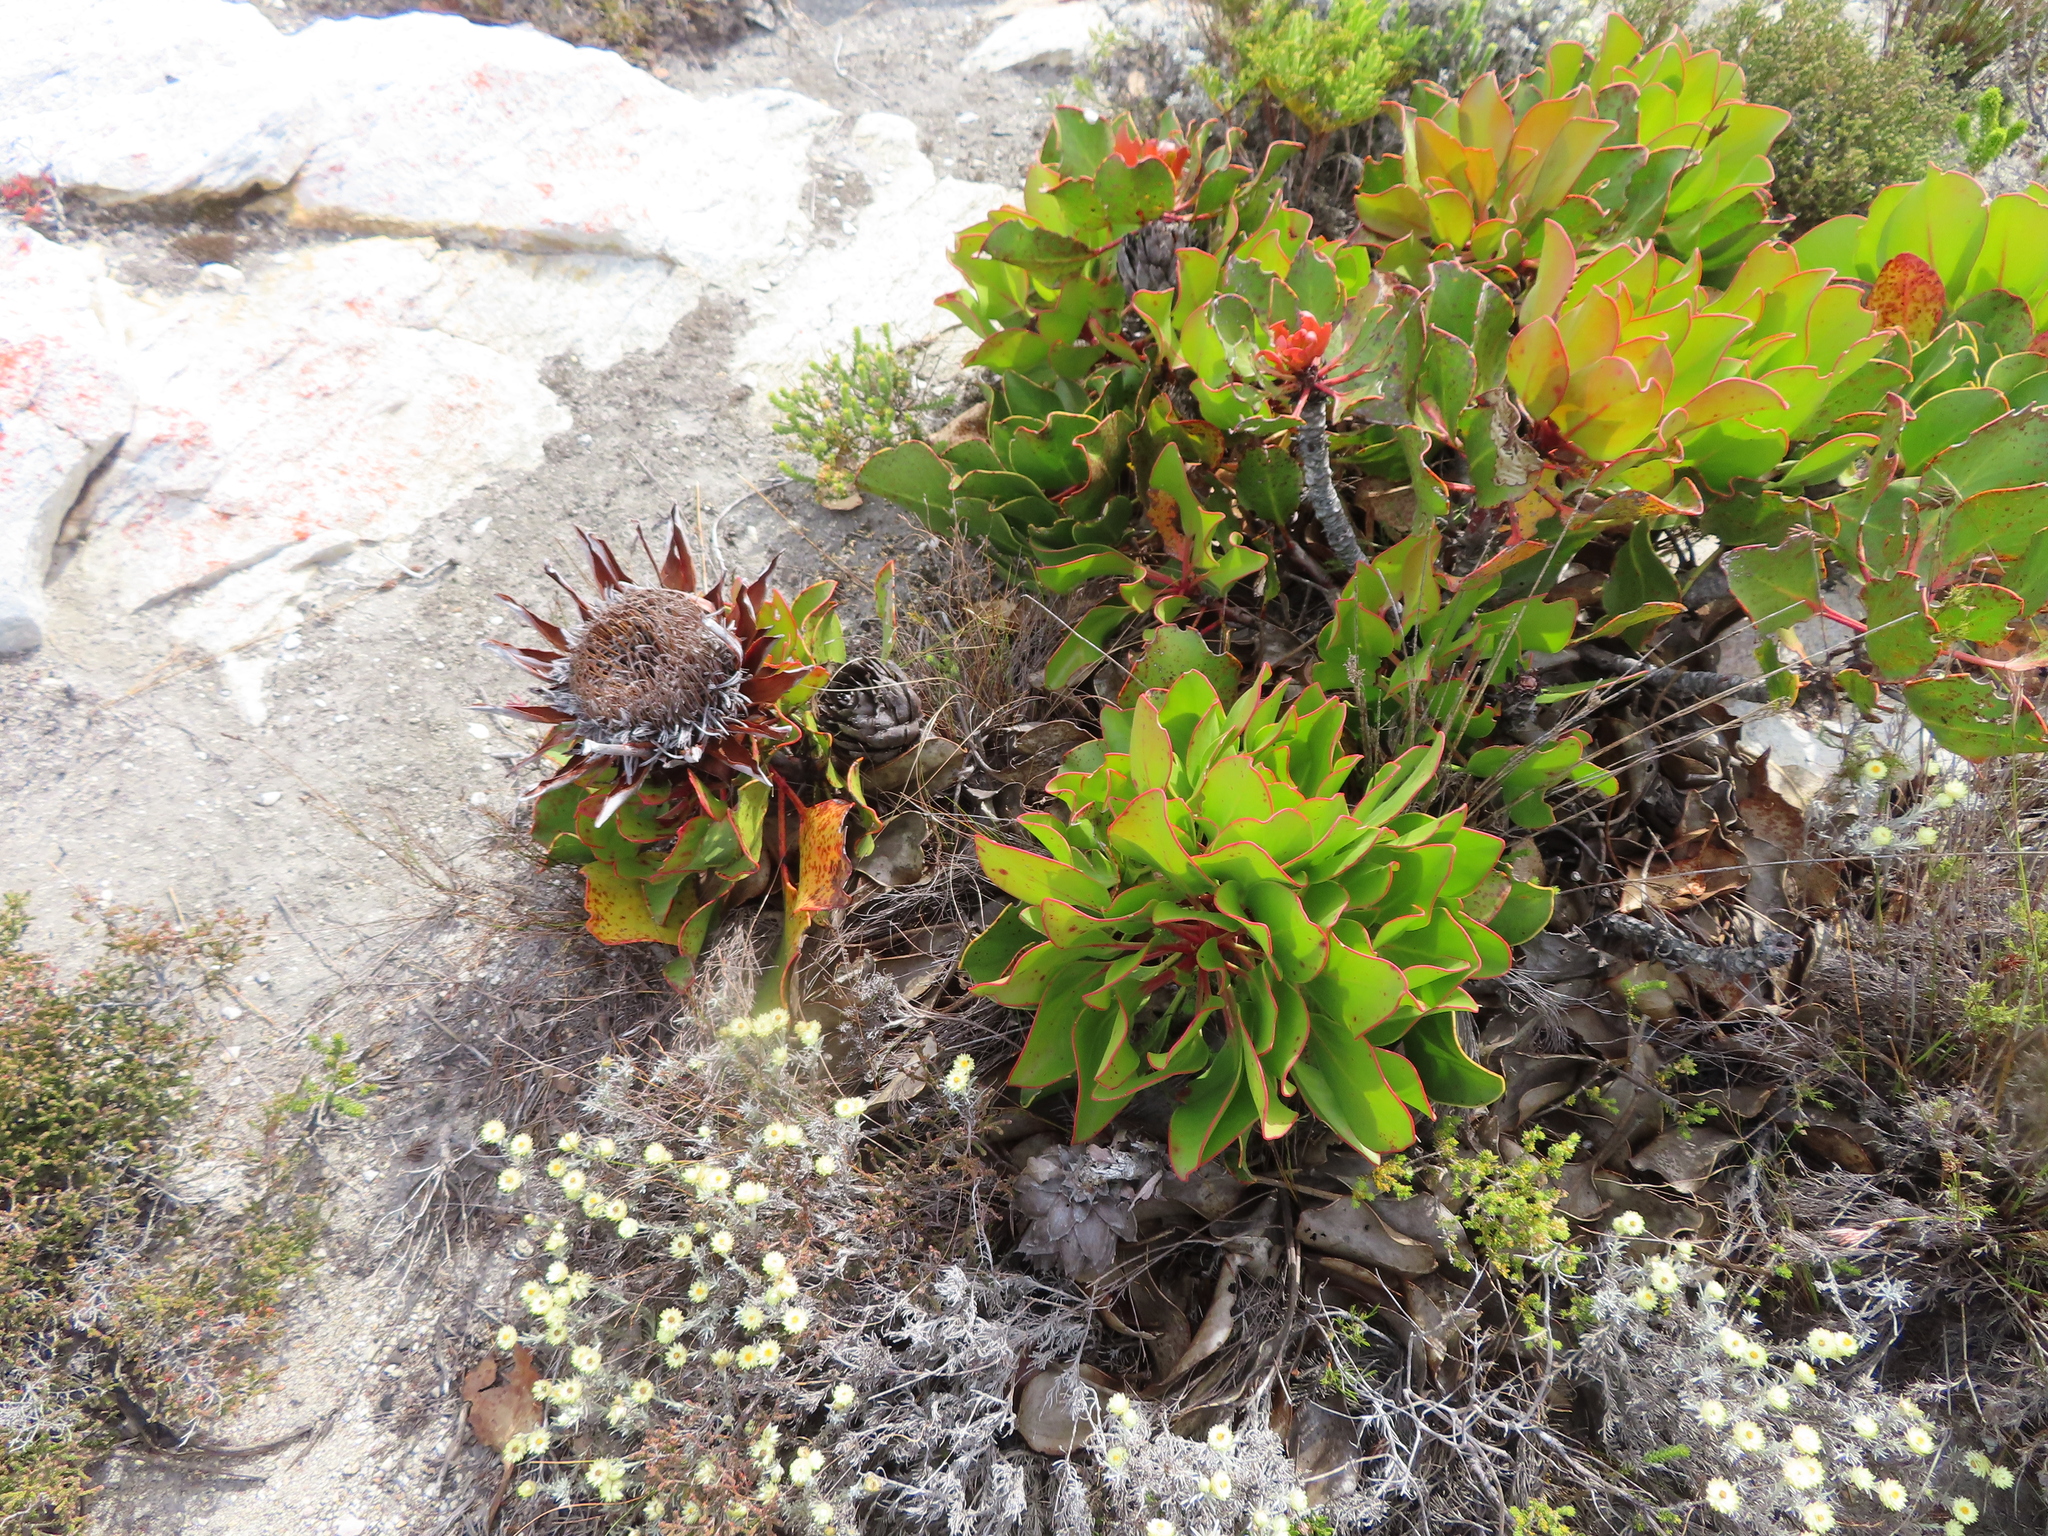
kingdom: Plantae
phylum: Tracheophyta
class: Magnoliopsida
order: Proteales
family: Proteaceae
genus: Protea
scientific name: Protea cynaroides
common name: King protea
